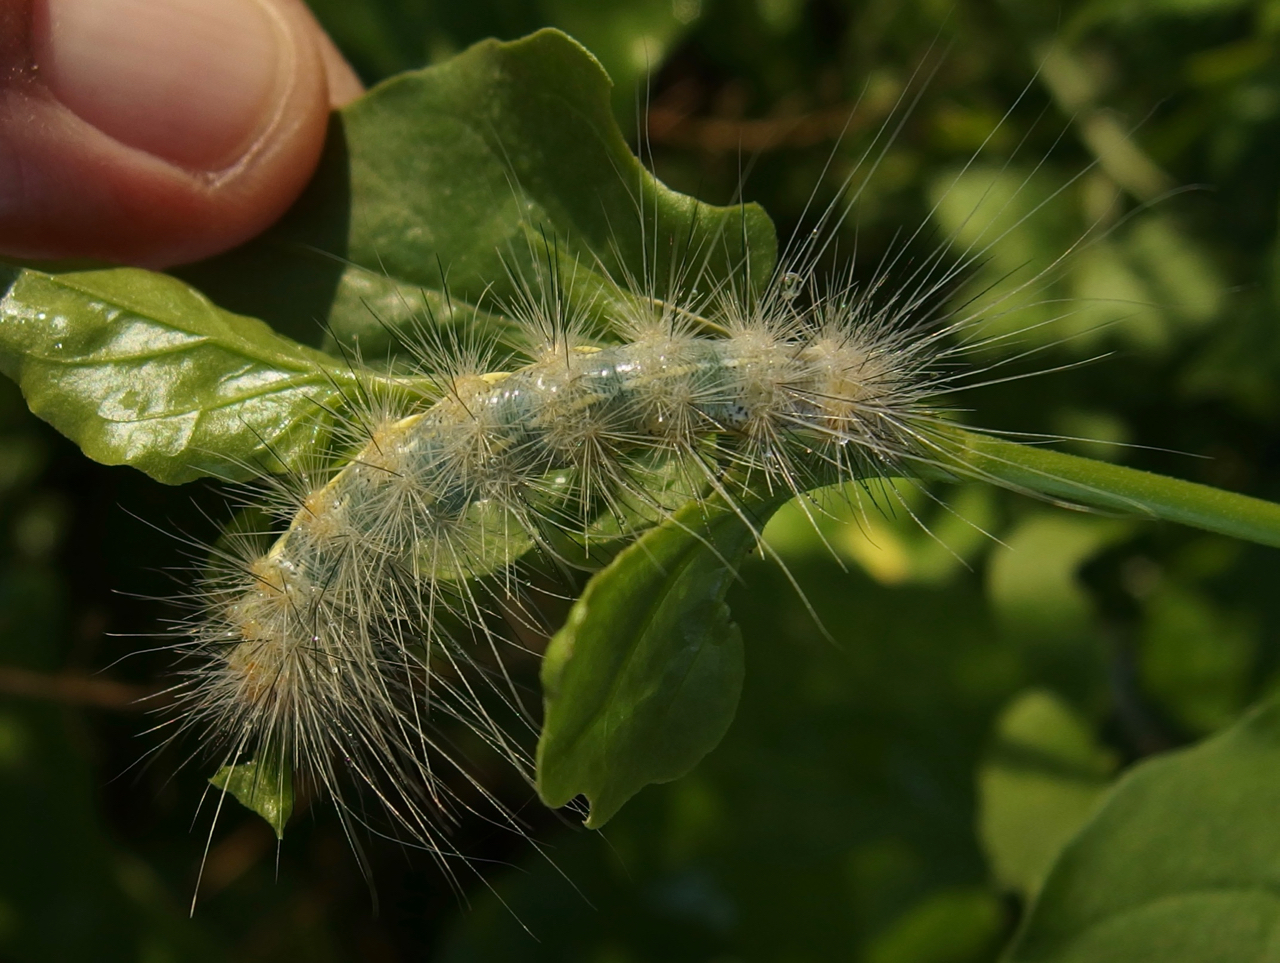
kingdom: Animalia
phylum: Arthropoda
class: Insecta
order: Lepidoptera
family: Erebidae
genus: Hypercompe
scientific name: Hypercompe suffusa
